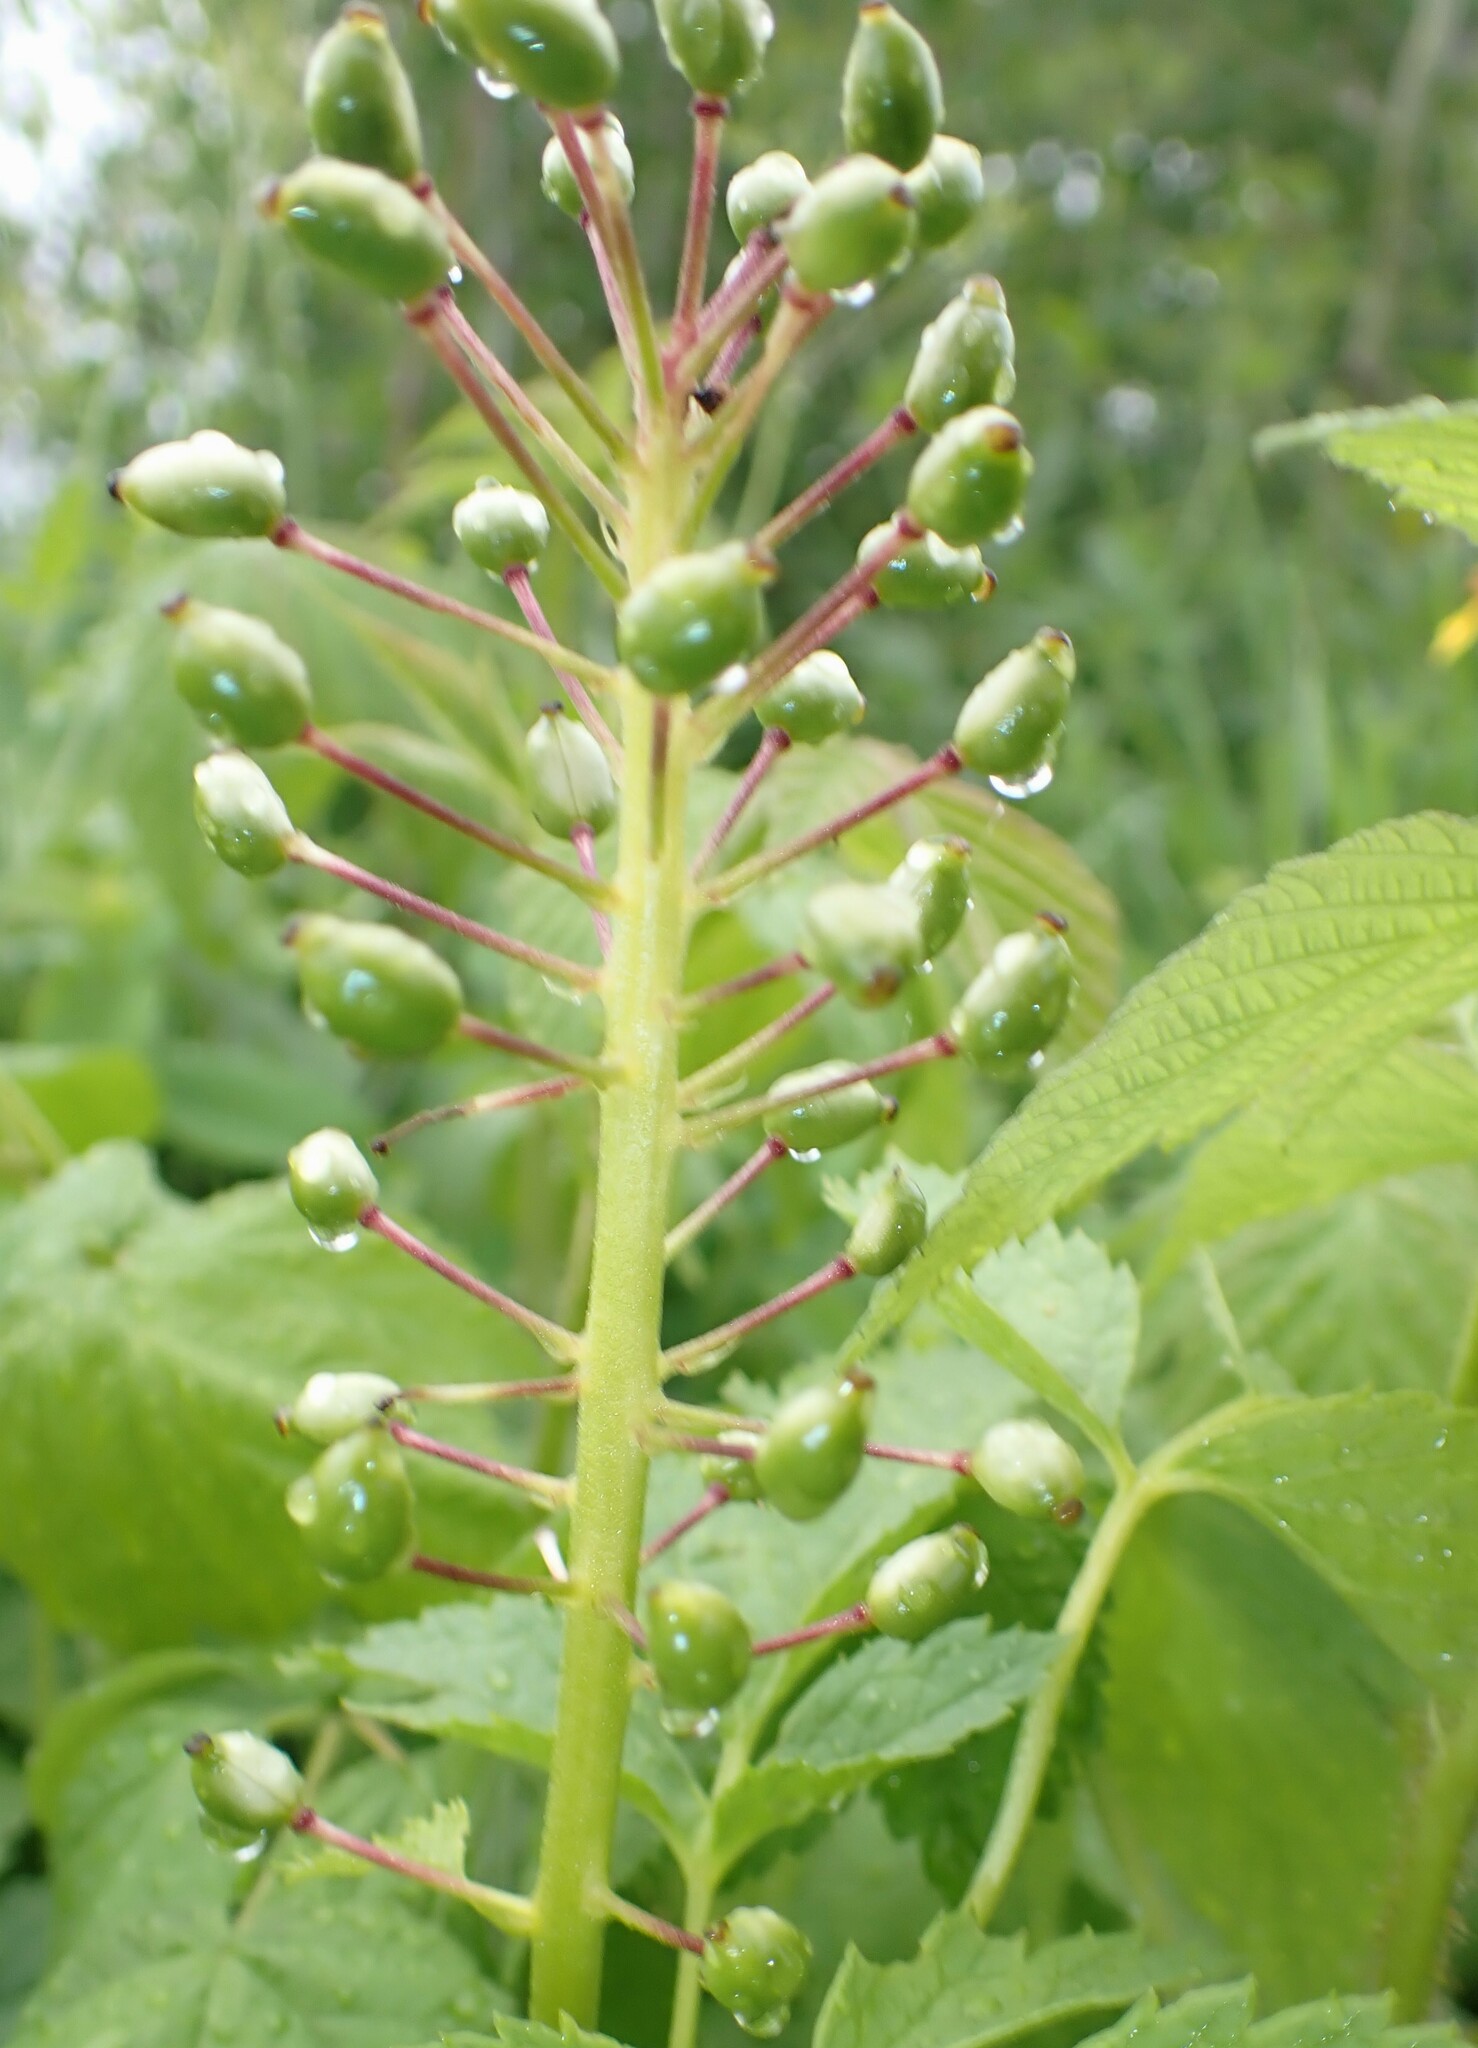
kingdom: Plantae
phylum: Tracheophyta
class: Magnoliopsida
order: Ranunculales
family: Ranunculaceae
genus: Actaea
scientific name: Actaea rubra
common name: Red baneberry
